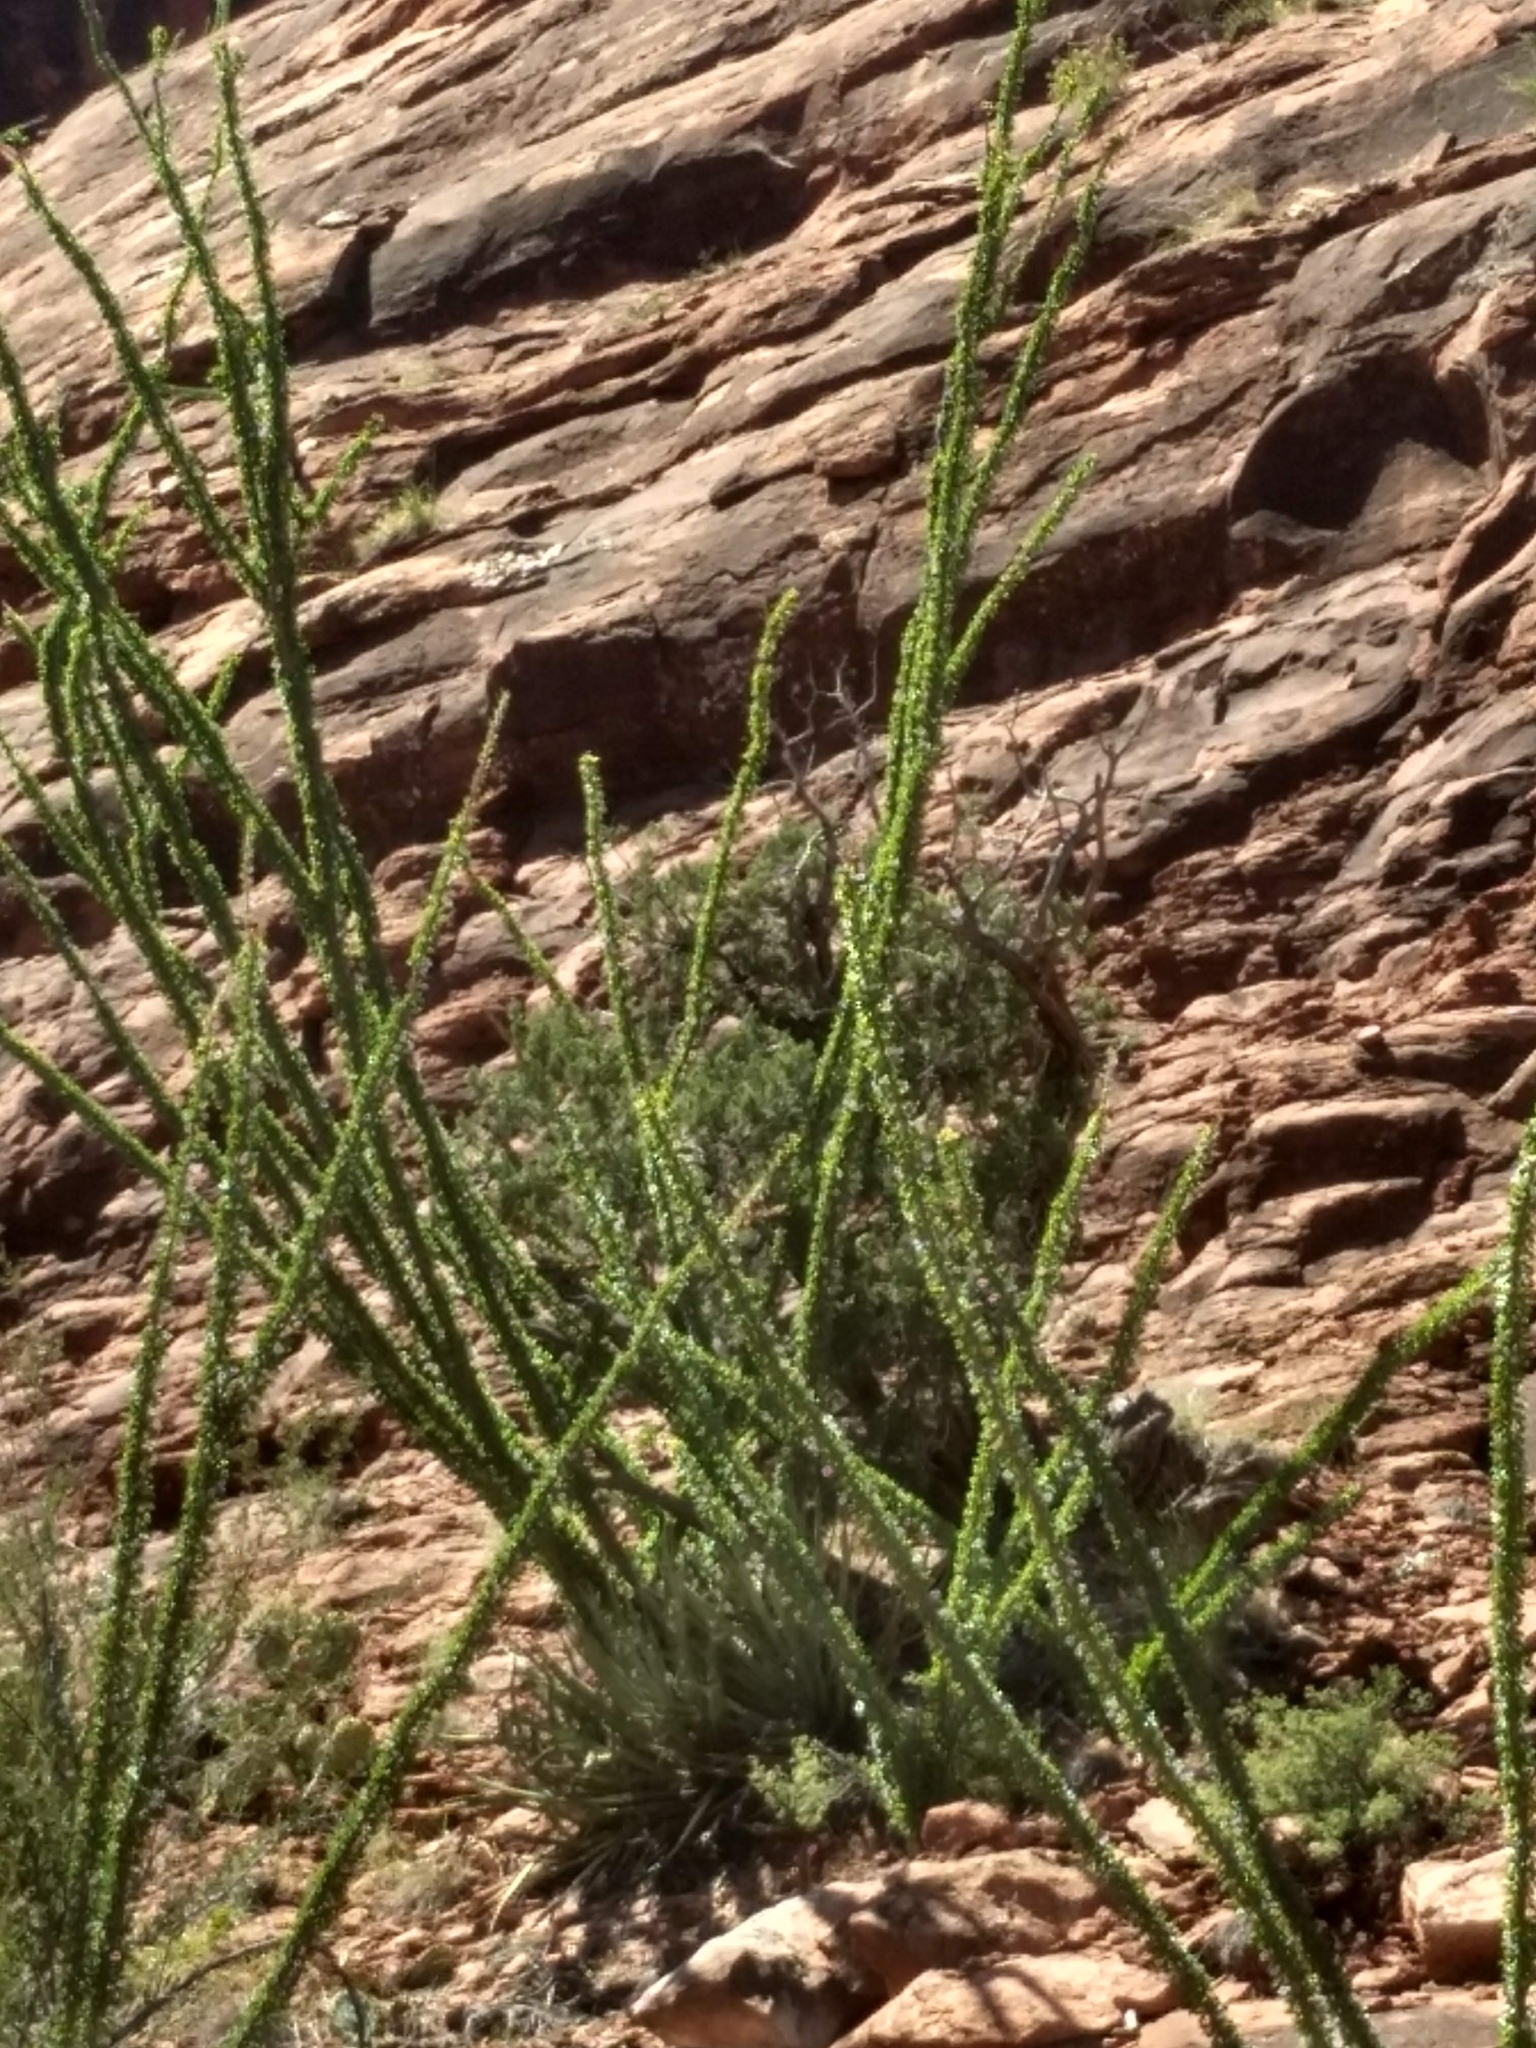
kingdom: Plantae
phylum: Tracheophyta
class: Magnoliopsida
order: Ericales
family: Fouquieriaceae
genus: Fouquieria
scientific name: Fouquieria splendens
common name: Vine-cactus
